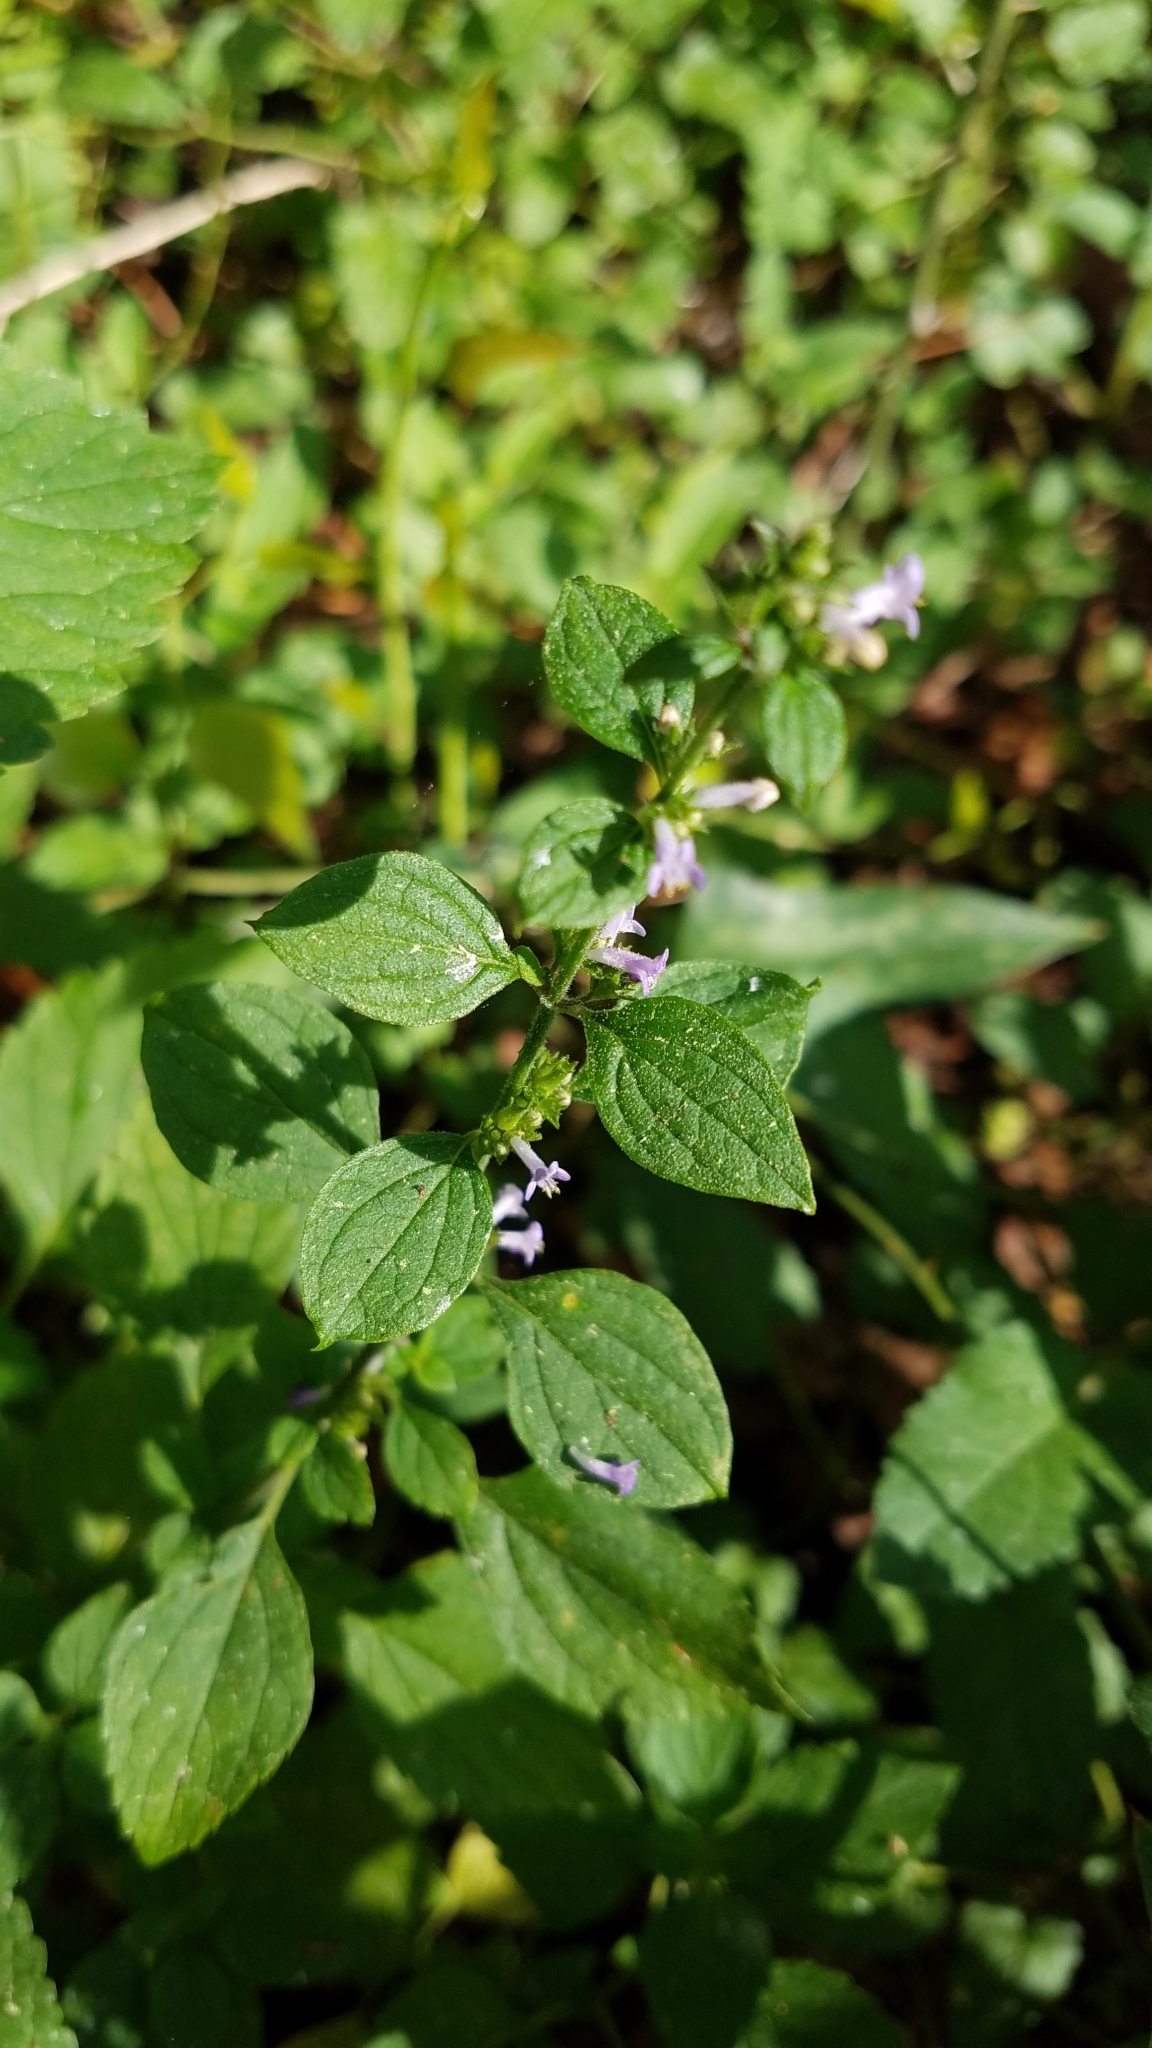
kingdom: Plantae
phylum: Tracheophyta
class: Magnoliopsida
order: Lamiales
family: Lamiaceae
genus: Cantinoa
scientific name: Cantinoa mutabilis
